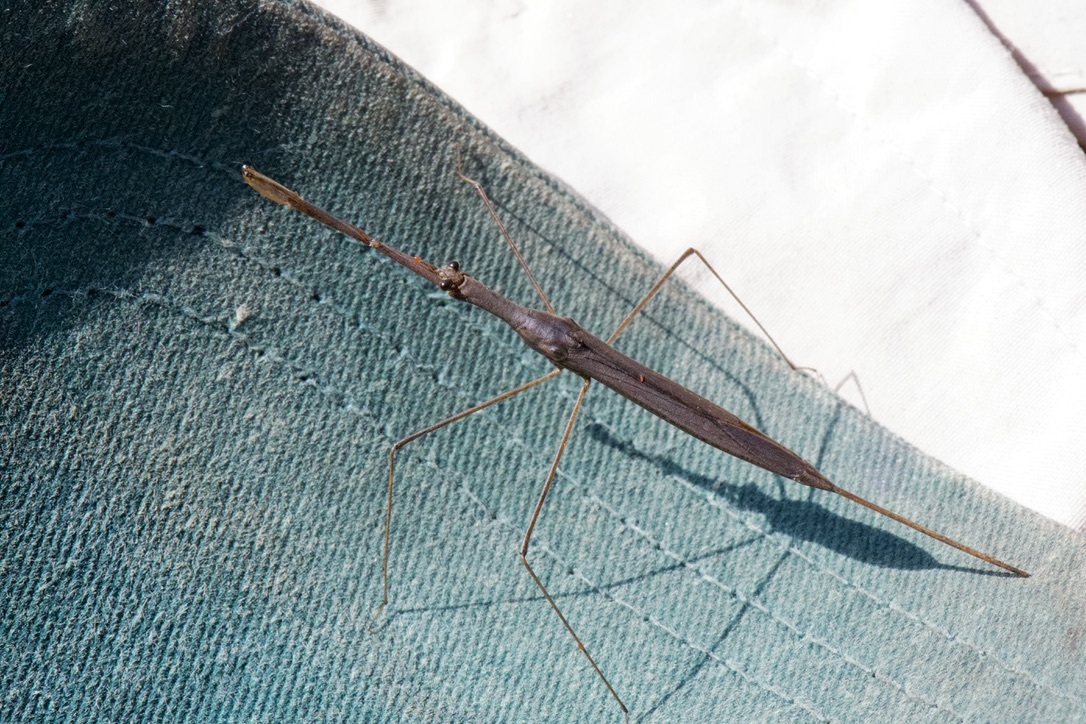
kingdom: Animalia
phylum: Arthropoda
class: Insecta
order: Hemiptera
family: Nepidae
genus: Ranatra
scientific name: Ranatra
